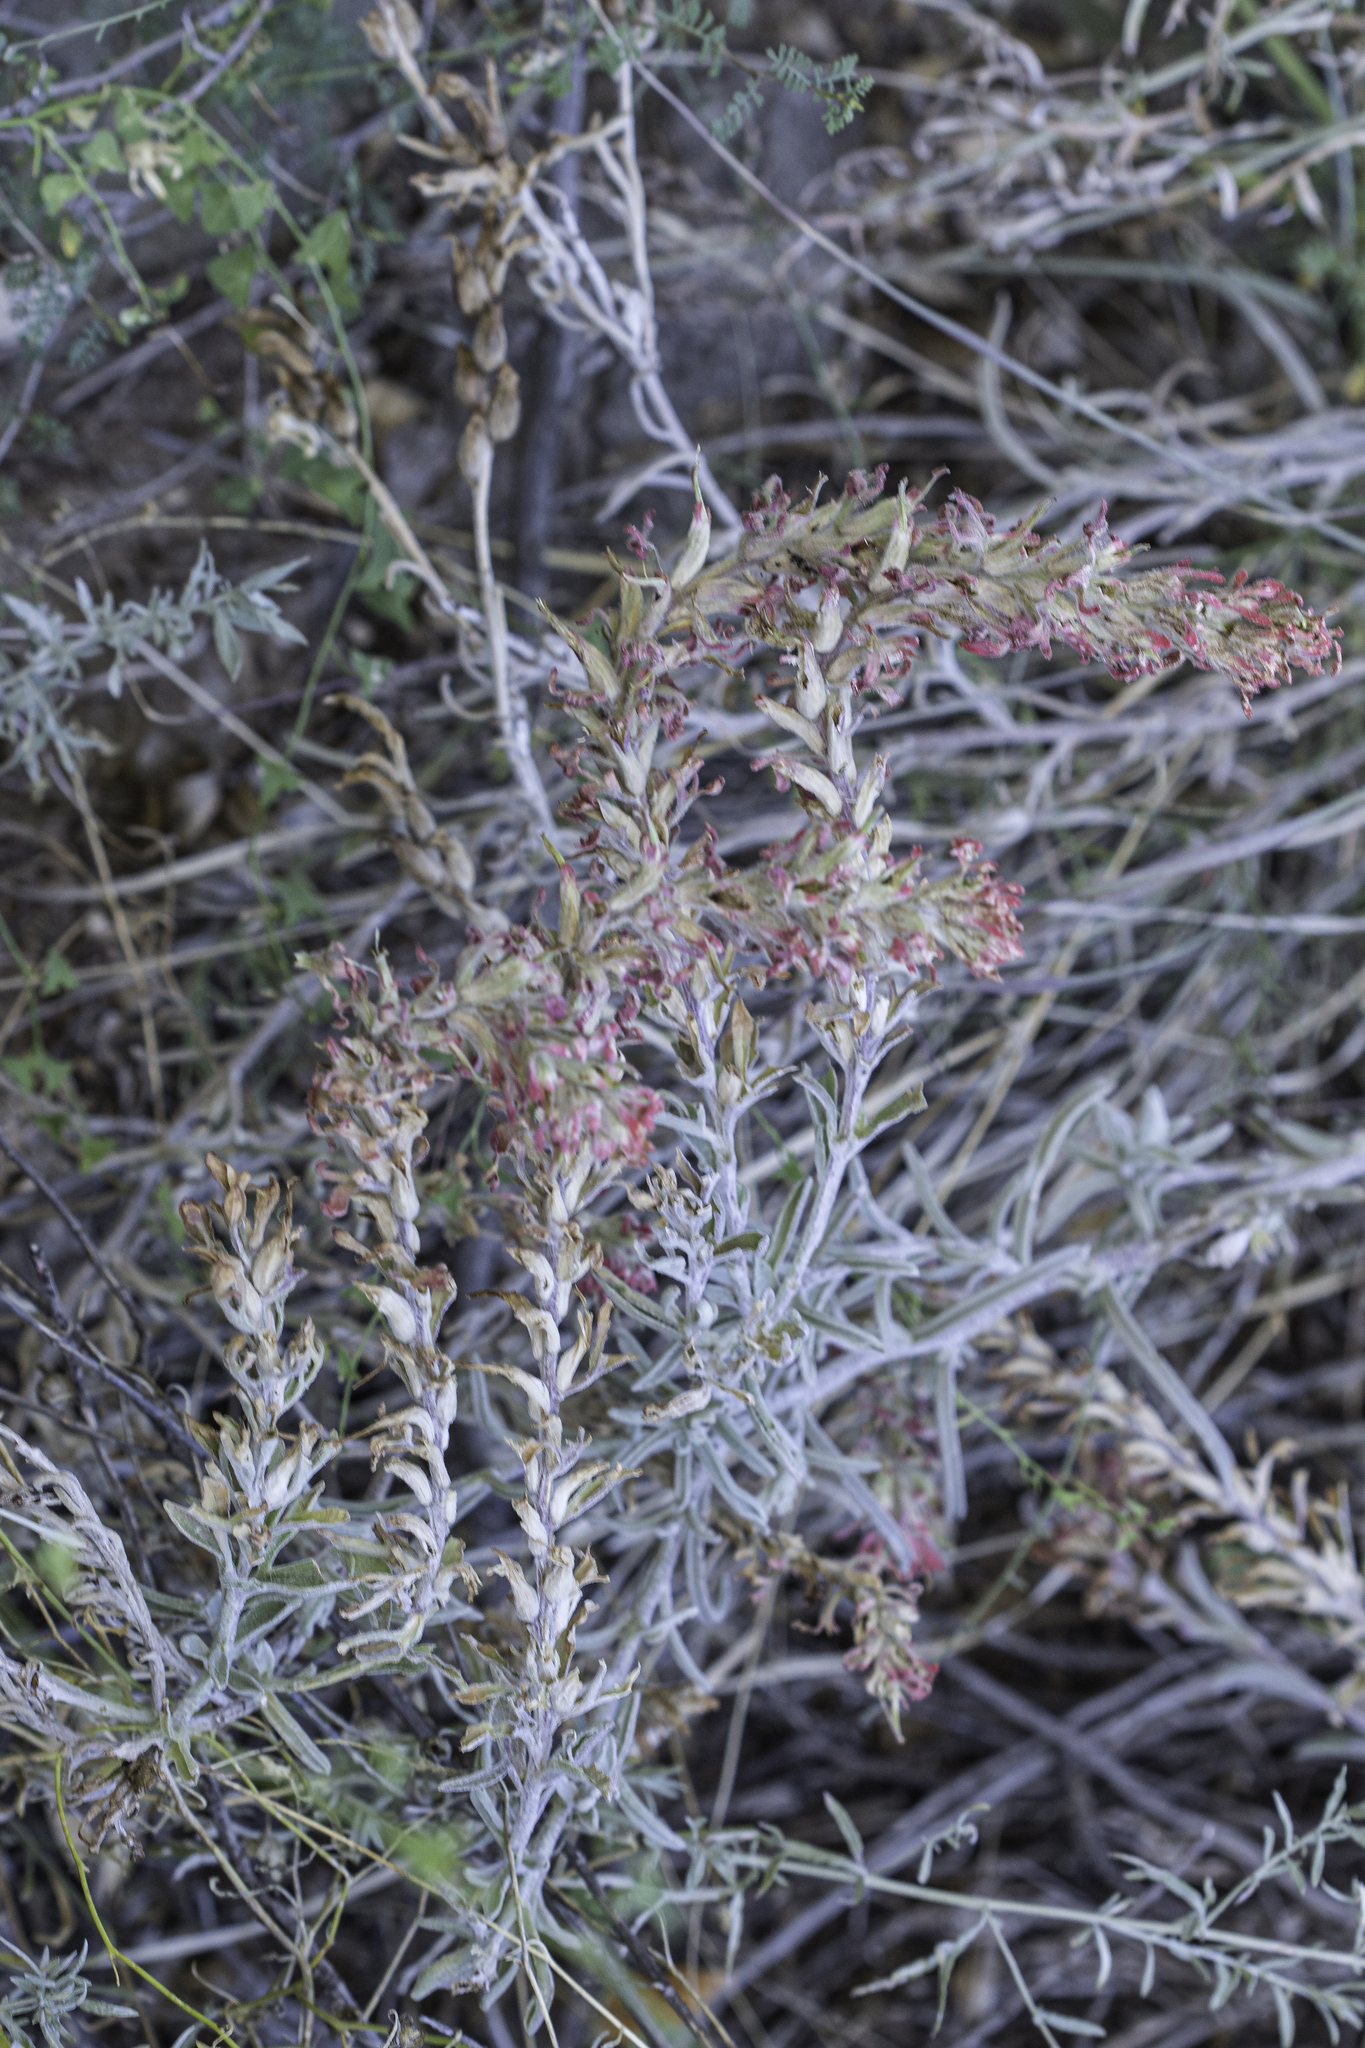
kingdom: Plantae
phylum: Tracheophyta
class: Magnoliopsida
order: Lamiales
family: Orobanchaceae
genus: Castilleja
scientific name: Castilleja lanata
